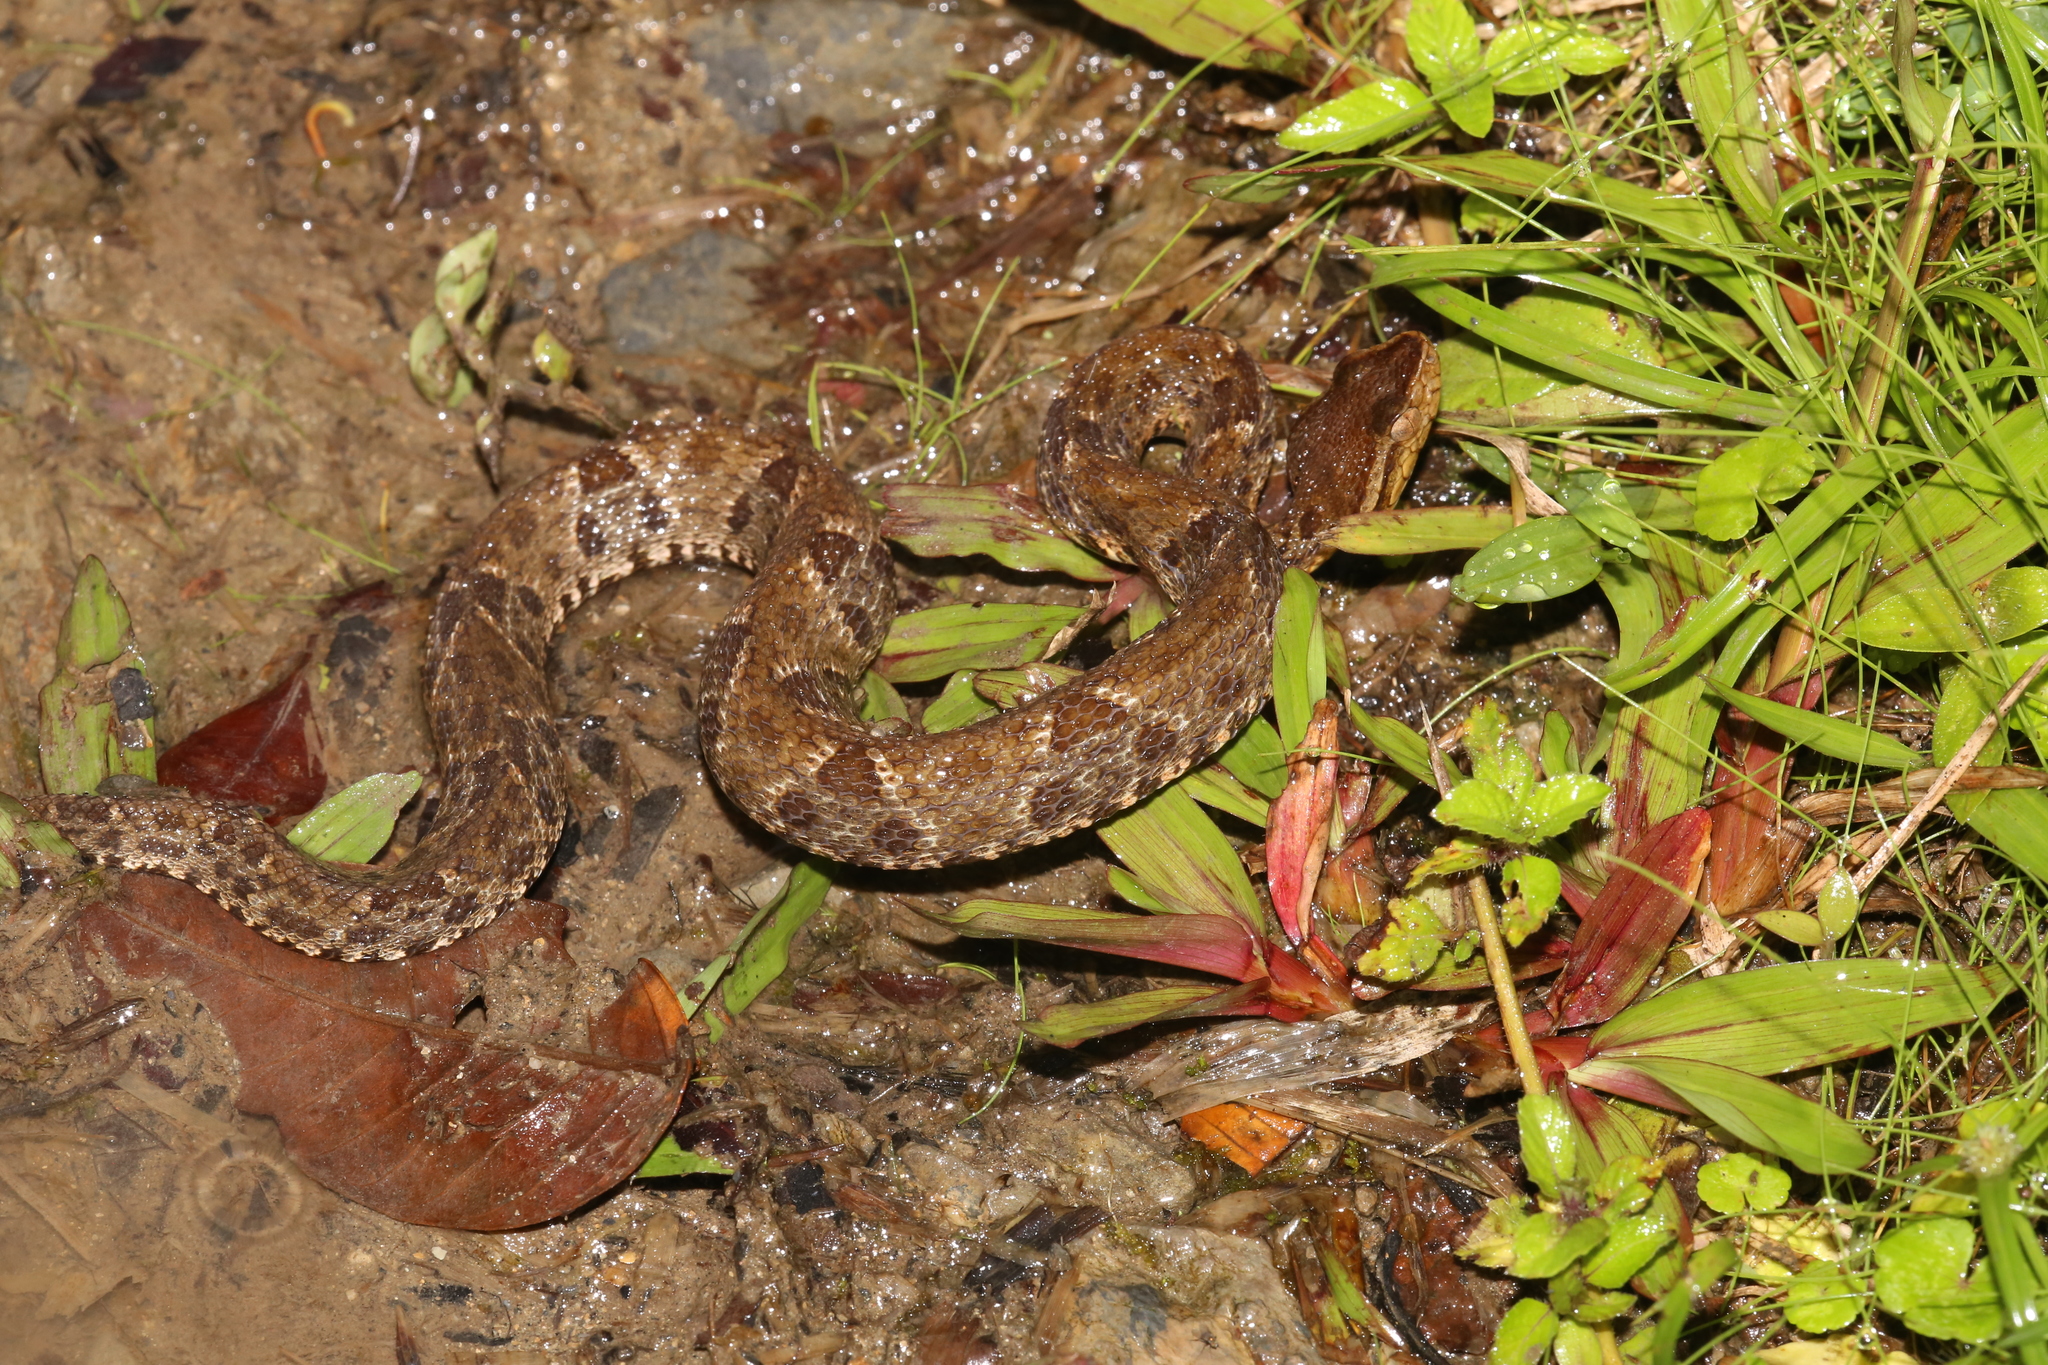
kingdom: Animalia
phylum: Chordata
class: Squamata
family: Viperidae
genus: Bothrops
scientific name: Bothrops asper
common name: Terciopelo
